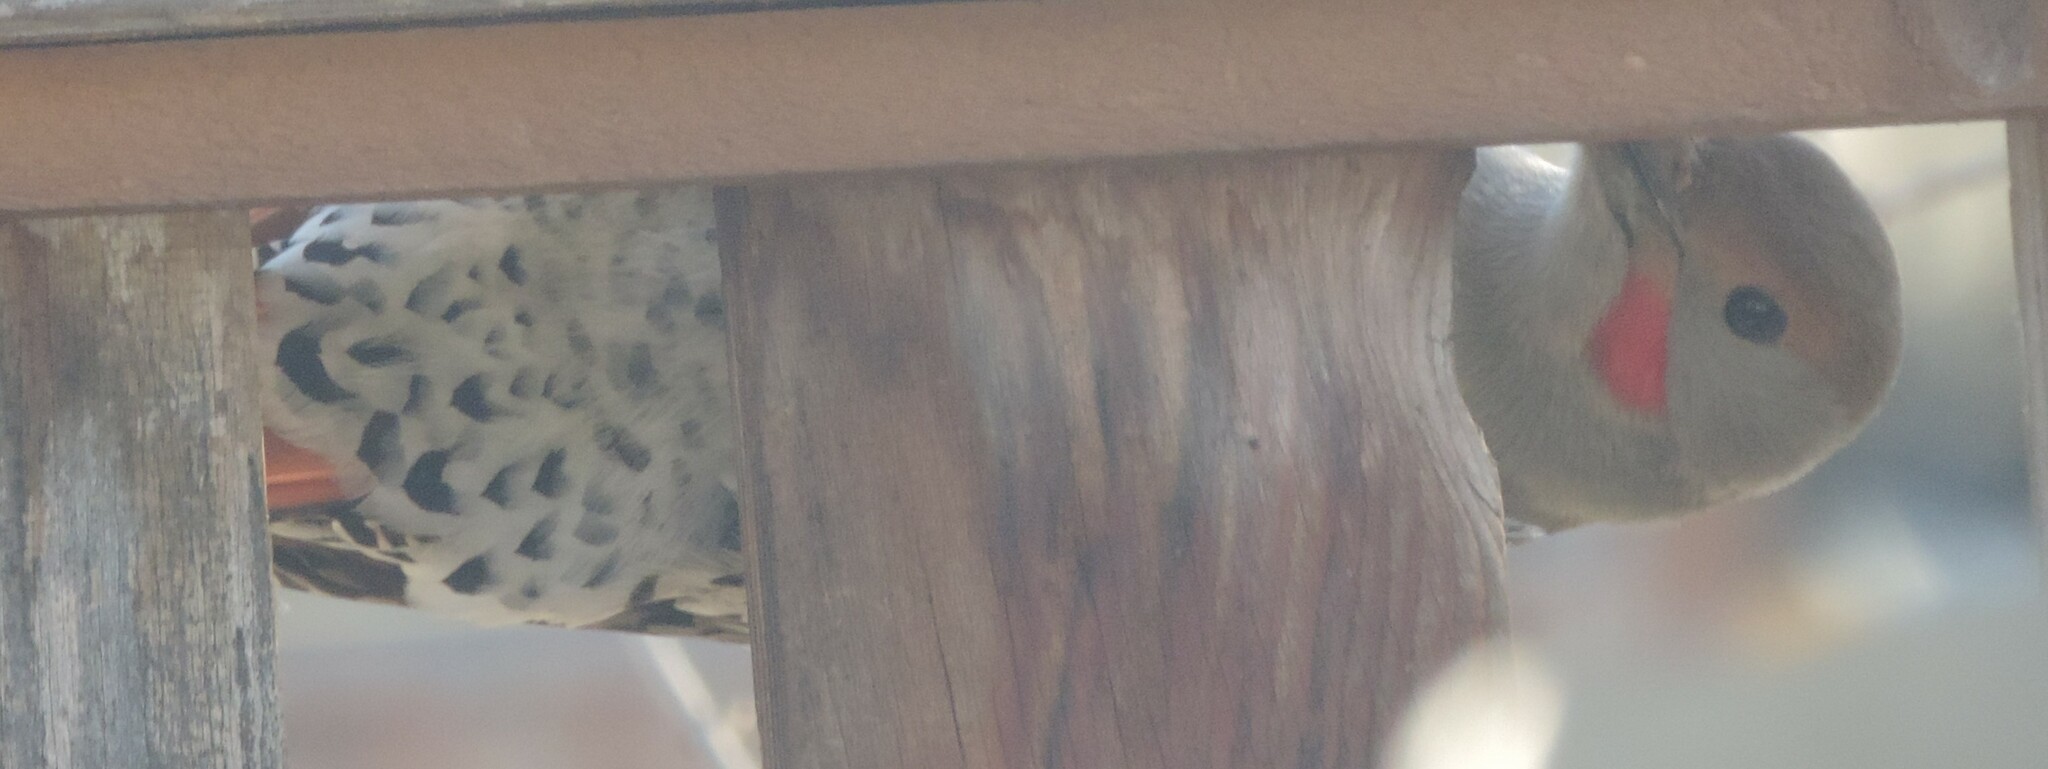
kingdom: Animalia
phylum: Chordata
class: Aves
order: Piciformes
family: Picidae
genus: Colaptes
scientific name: Colaptes auratus
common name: Northern flicker
